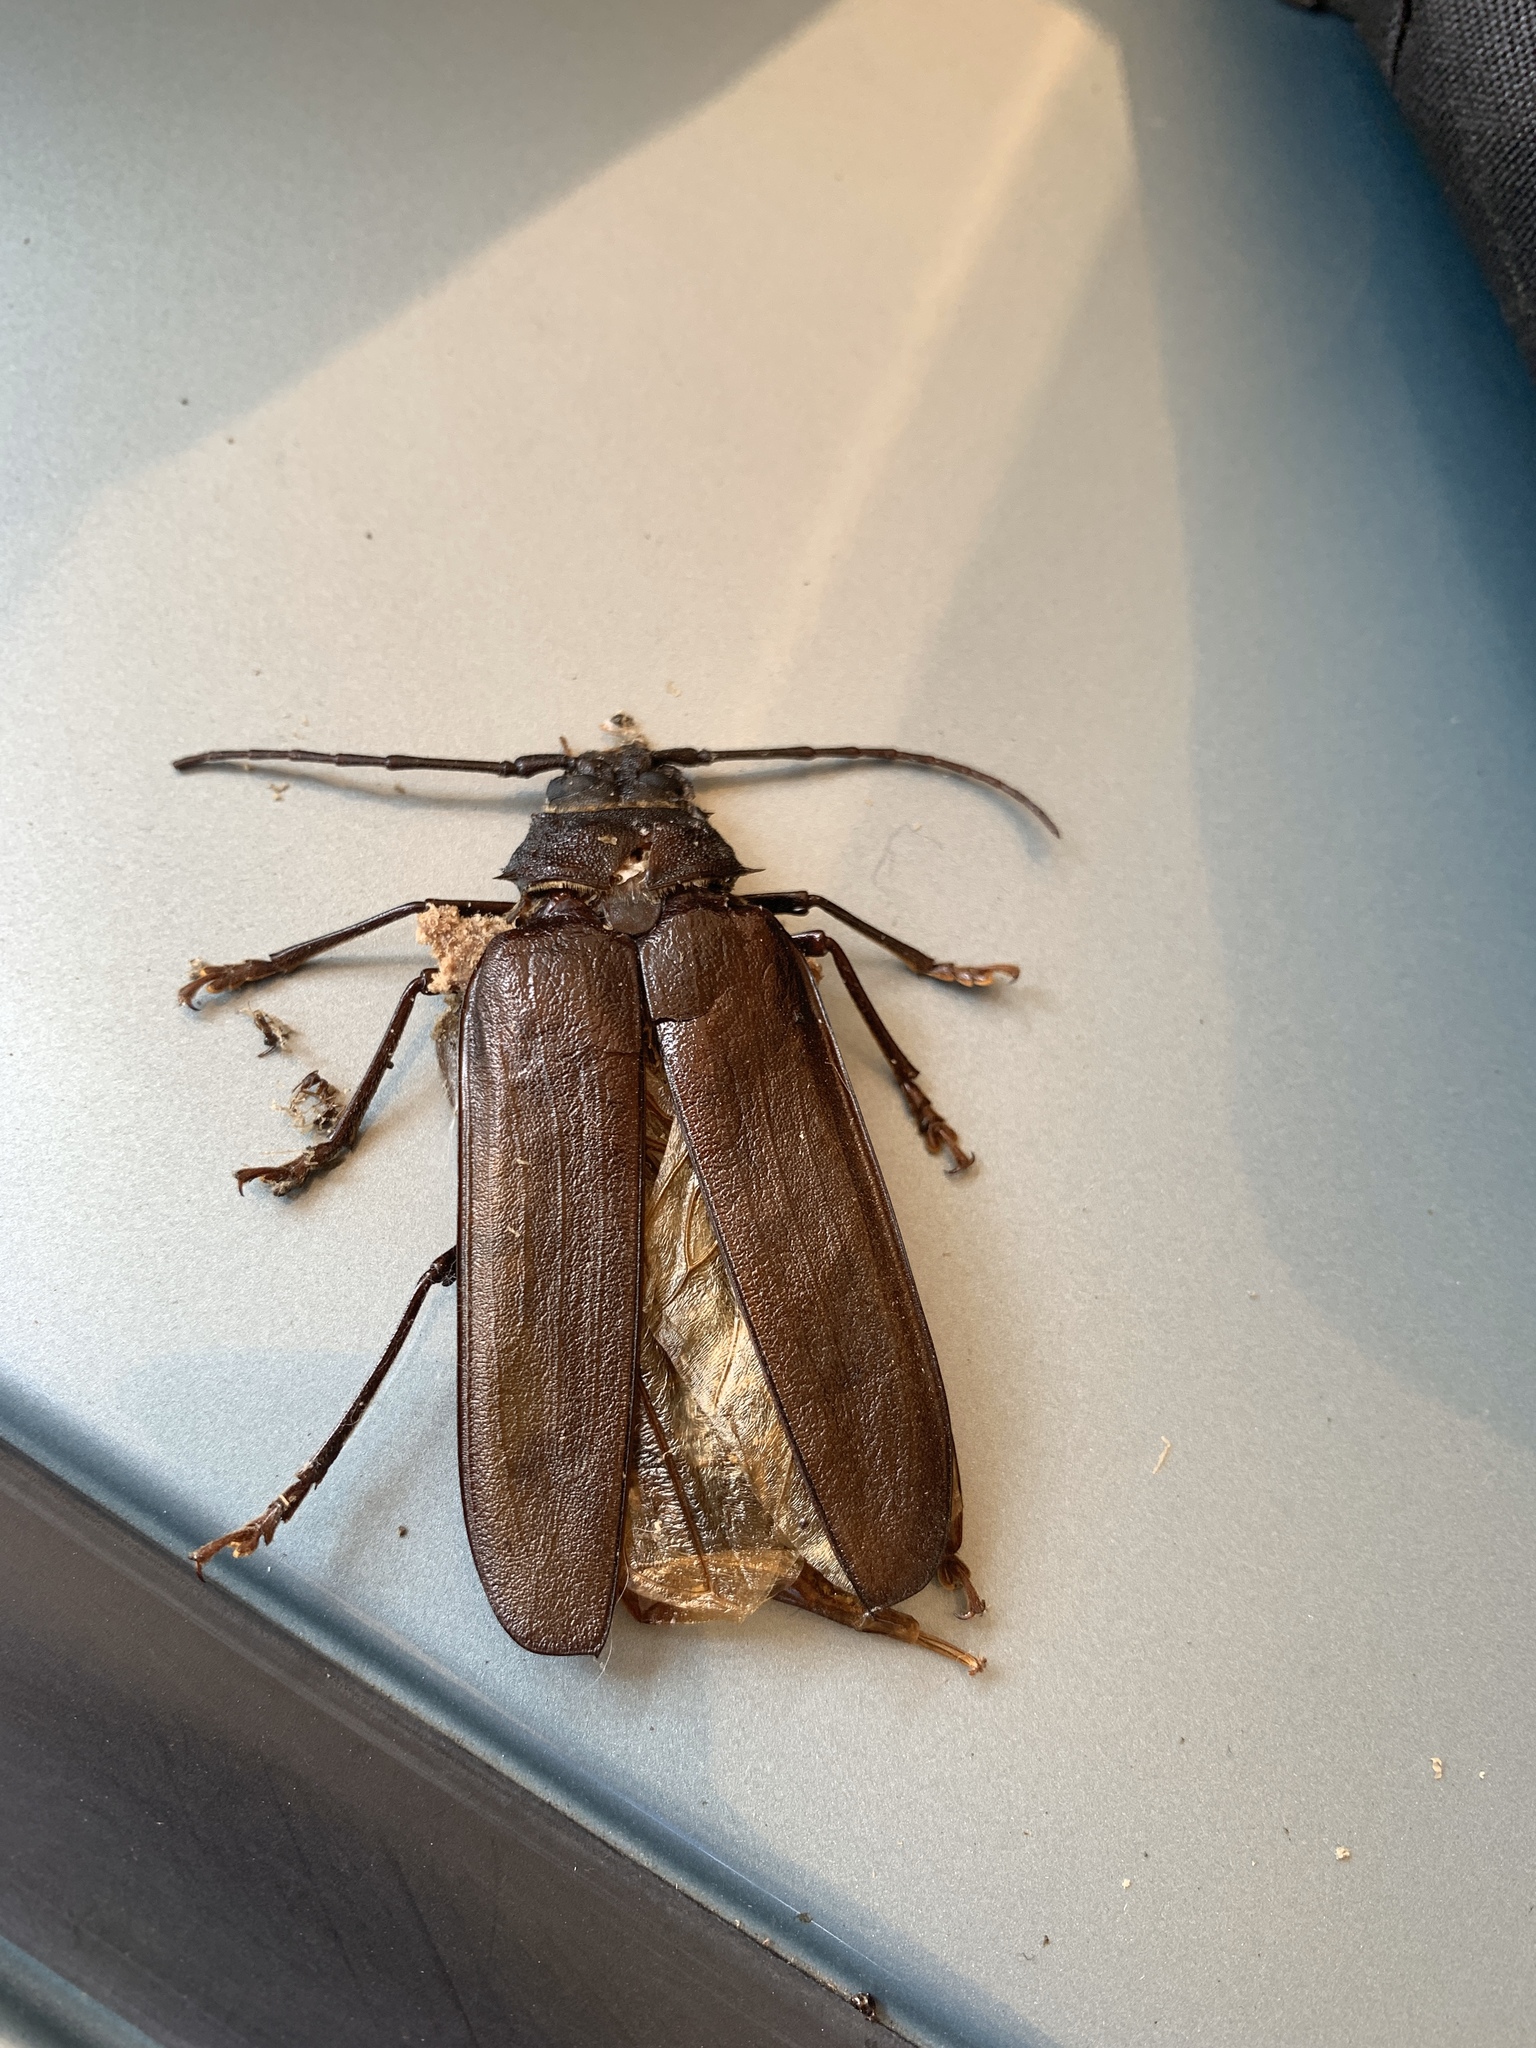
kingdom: Animalia
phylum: Arthropoda
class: Insecta
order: Coleoptera
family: Cerambycidae
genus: Trichocnemis
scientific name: Trichocnemis spiculatus
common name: Long-horned beetle
